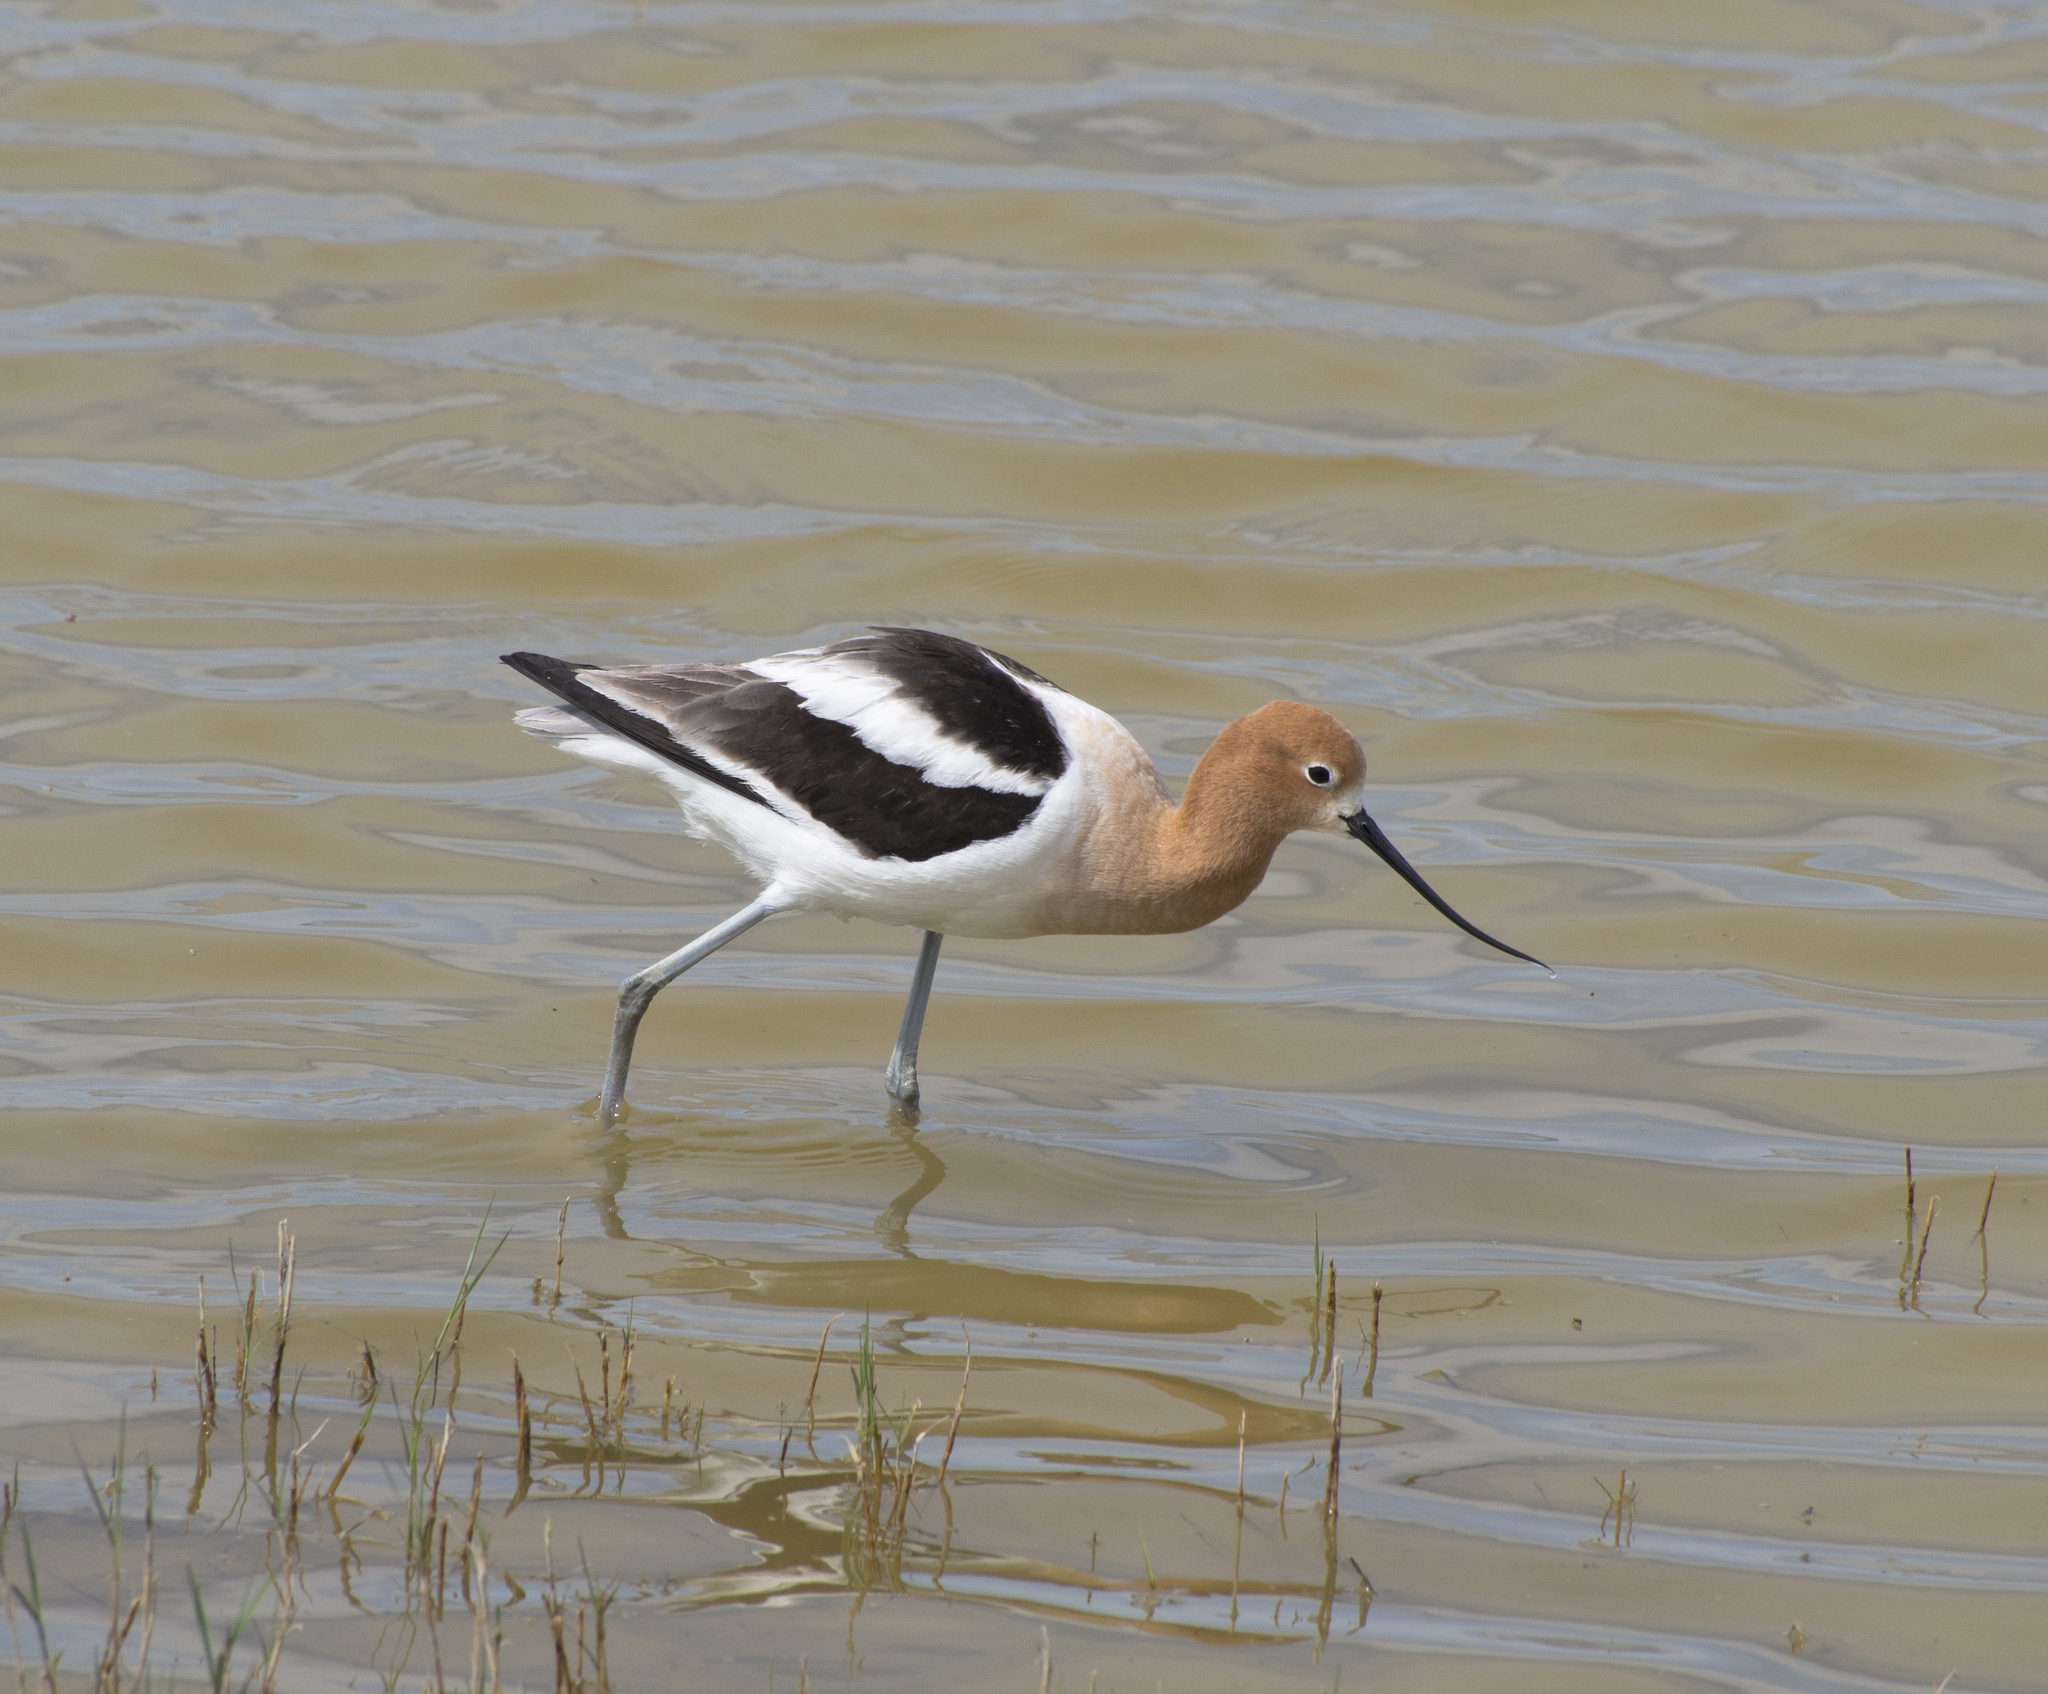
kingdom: Animalia
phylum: Chordata
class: Aves
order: Charadriiformes
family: Recurvirostridae
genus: Recurvirostra
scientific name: Recurvirostra americana
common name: American avocet
